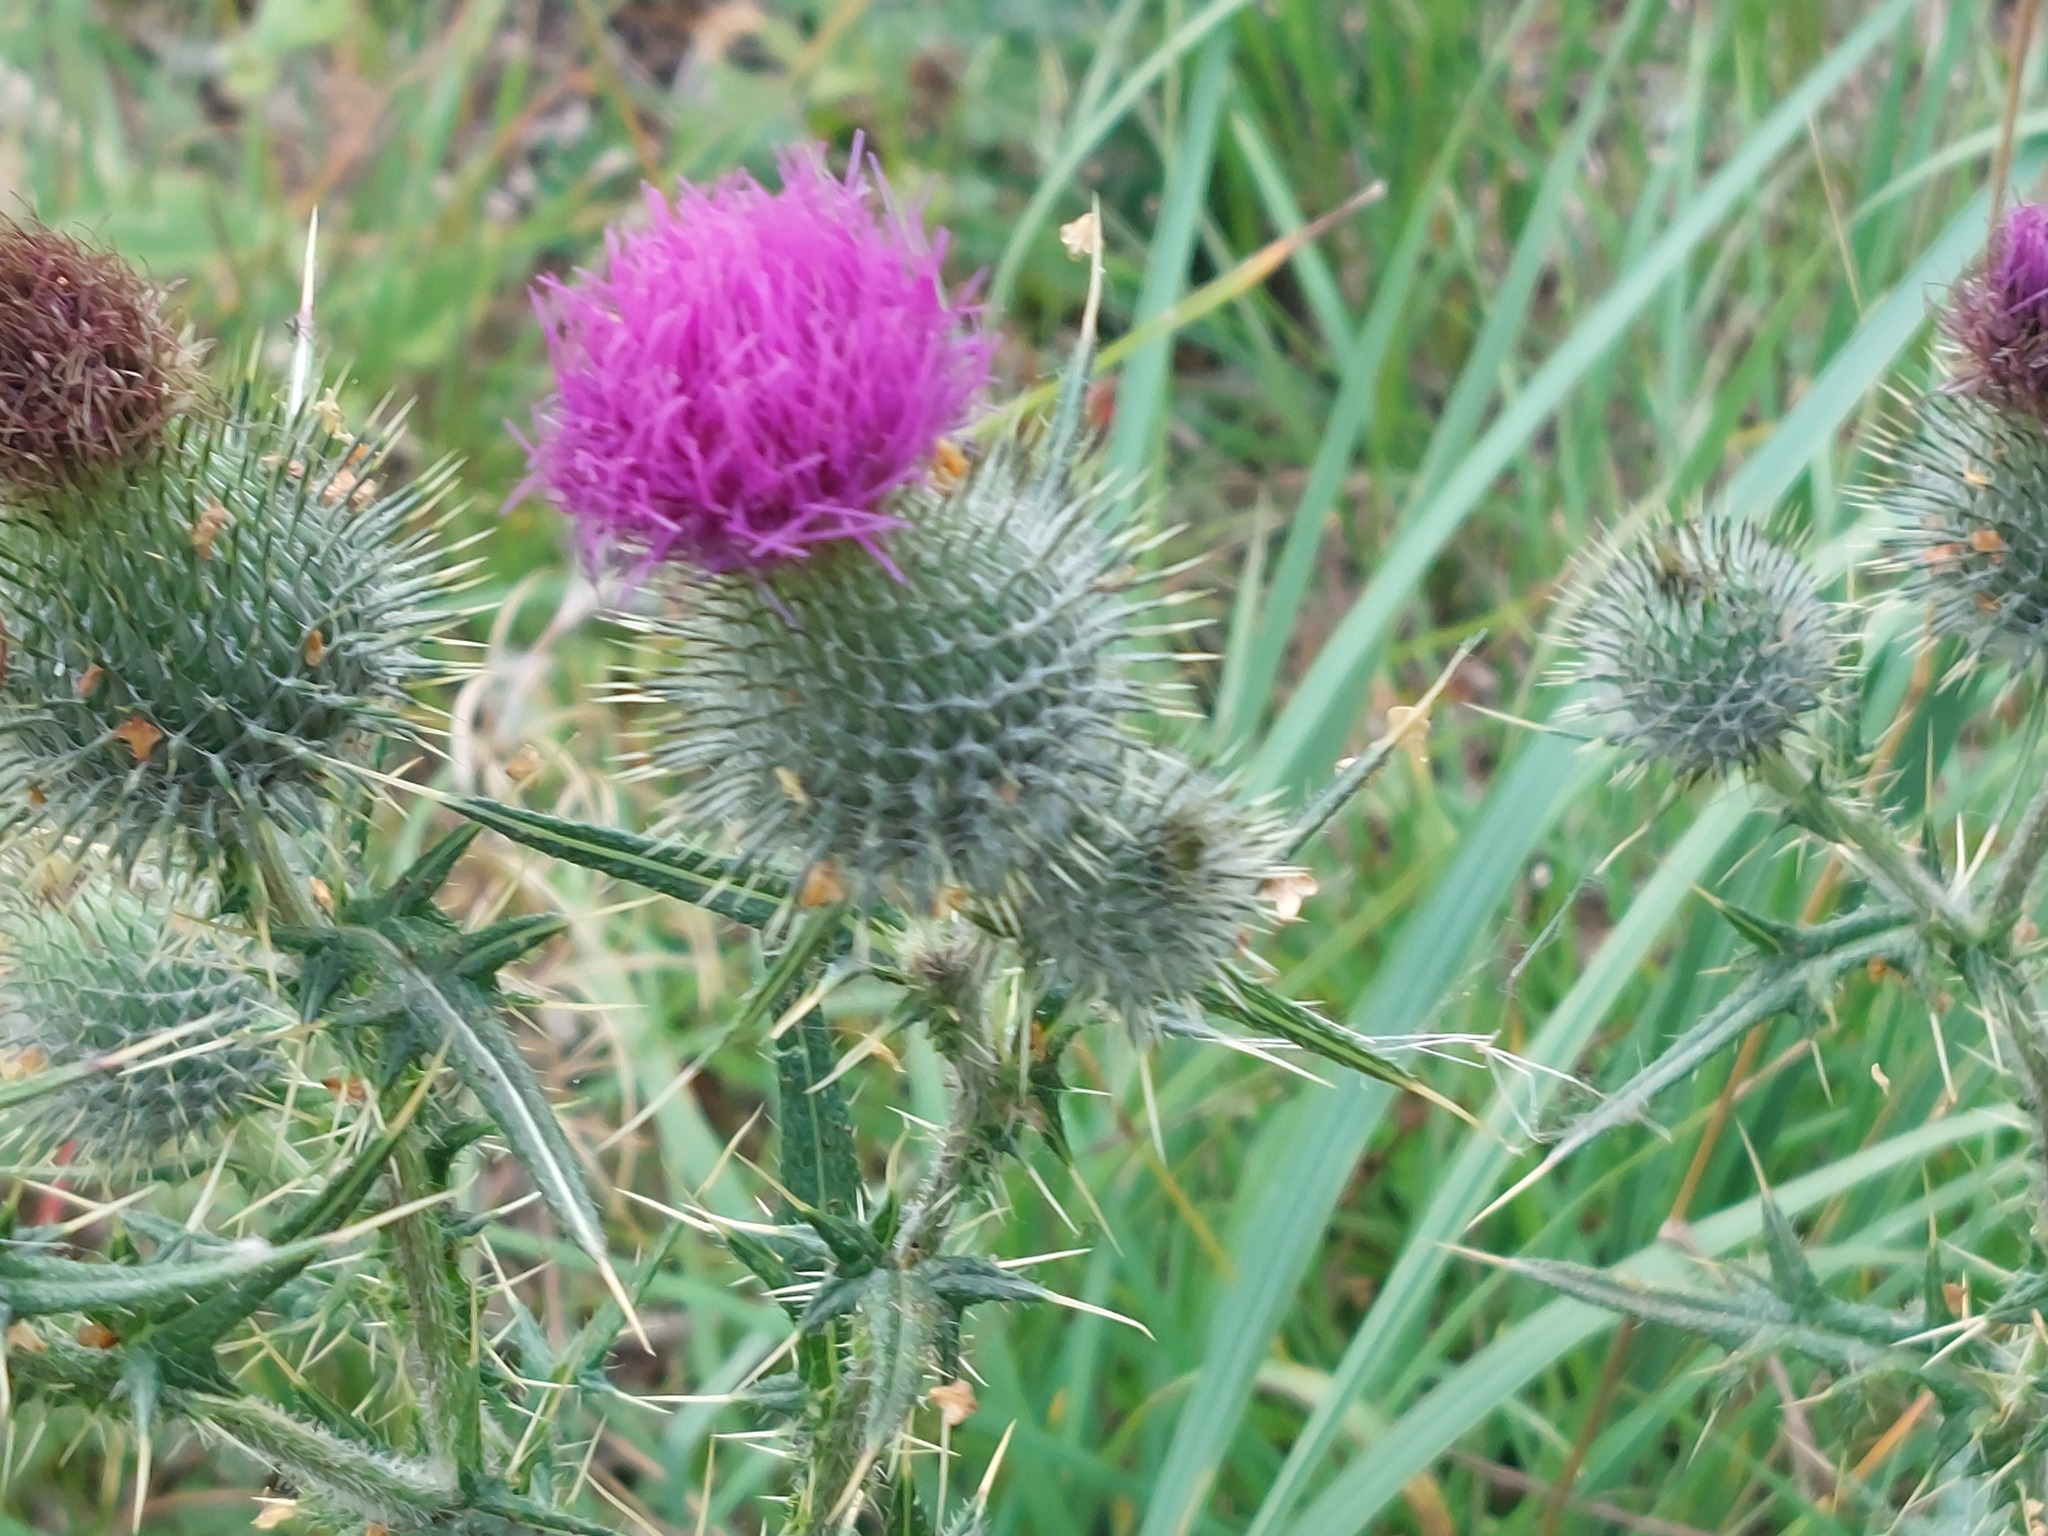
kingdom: Plantae
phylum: Tracheophyta
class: Magnoliopsida
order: Asterales
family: Asteraceae
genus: Cirsium
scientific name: Cirsium vulgare
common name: Bull thistle
